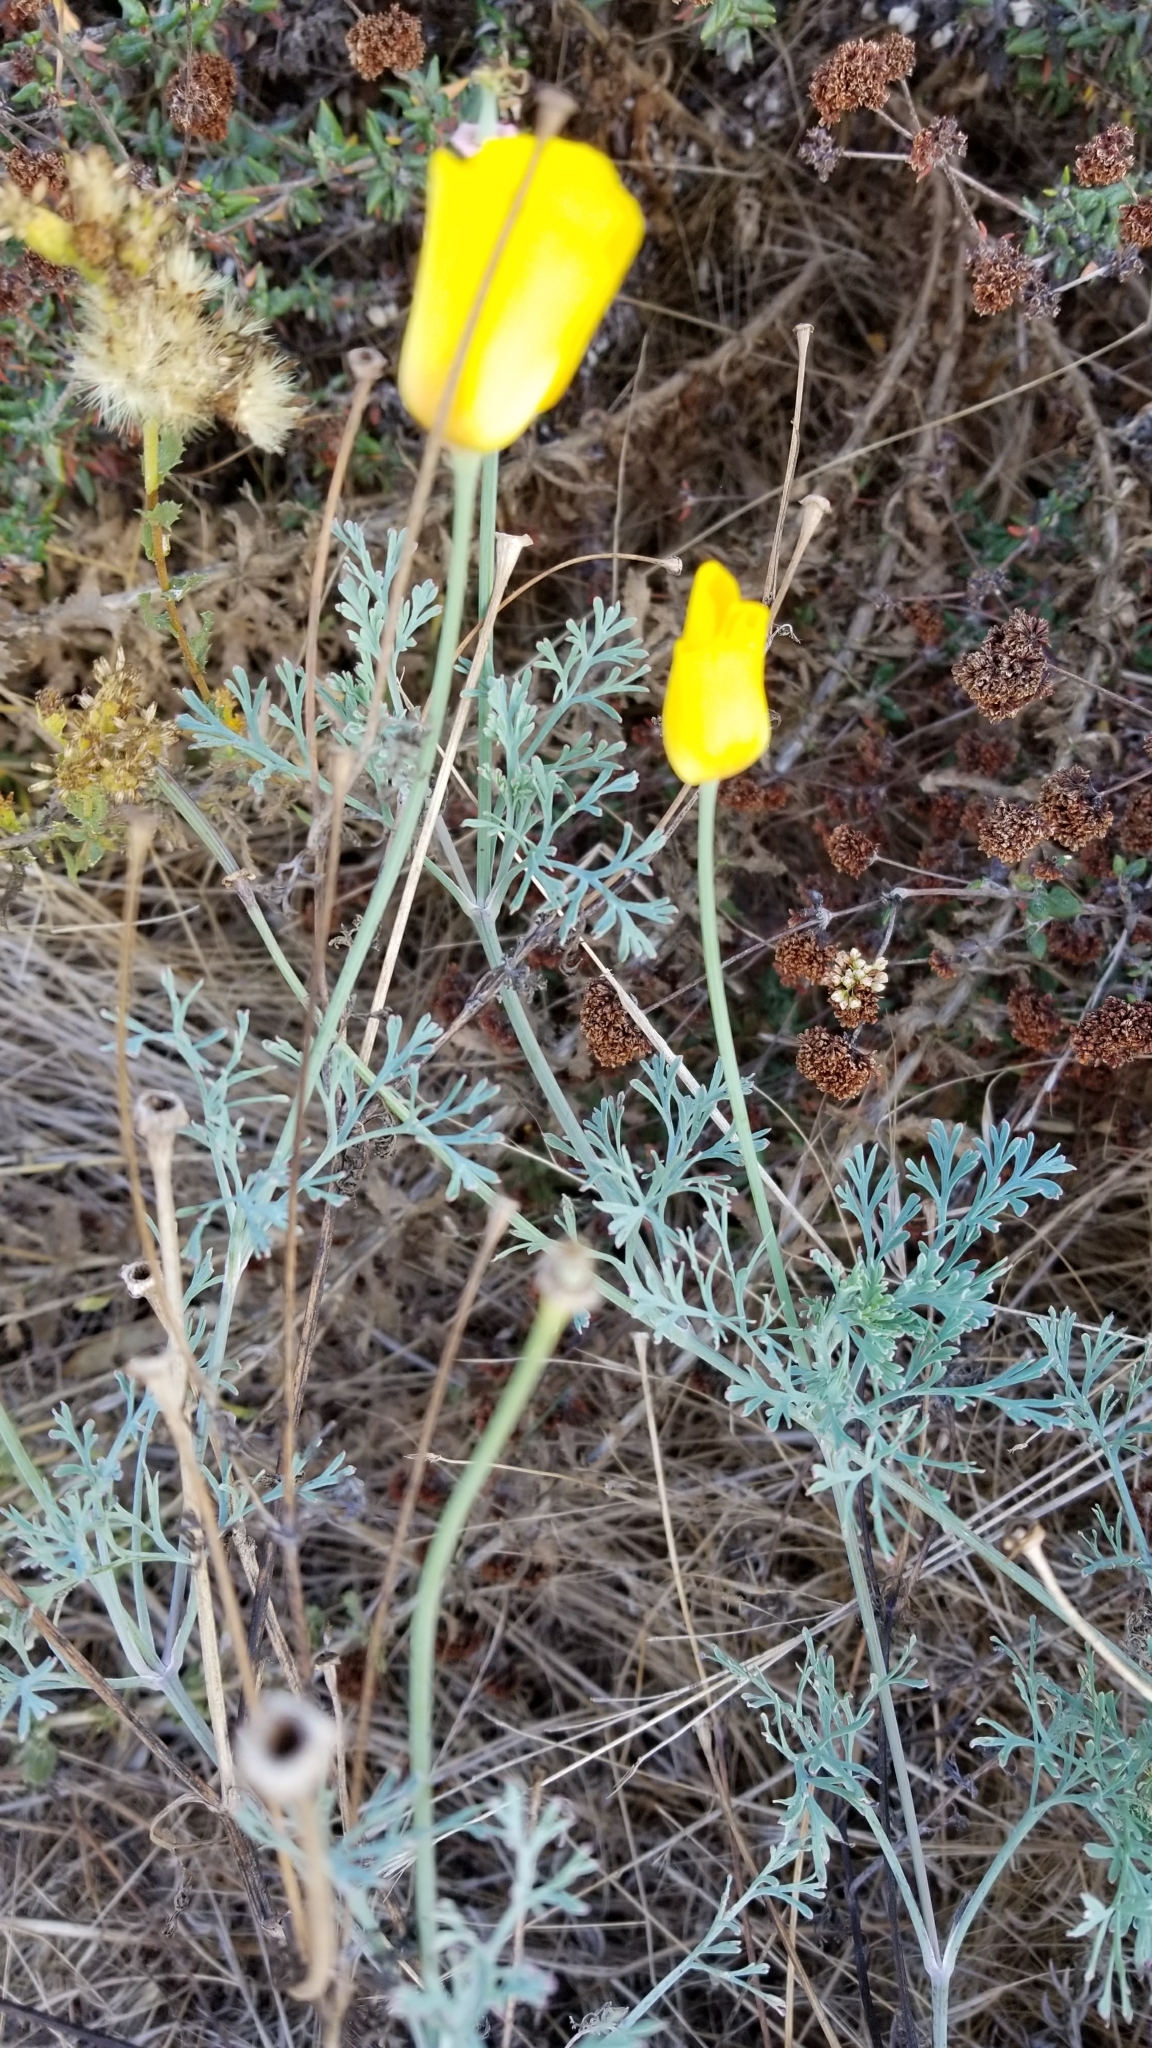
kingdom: Plantae
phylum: Tracheophyta
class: Magnoliopsida
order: Ranunculales
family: Papaveraceae
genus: Eschscholzia
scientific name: Eschscholzia californica
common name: California poppy
